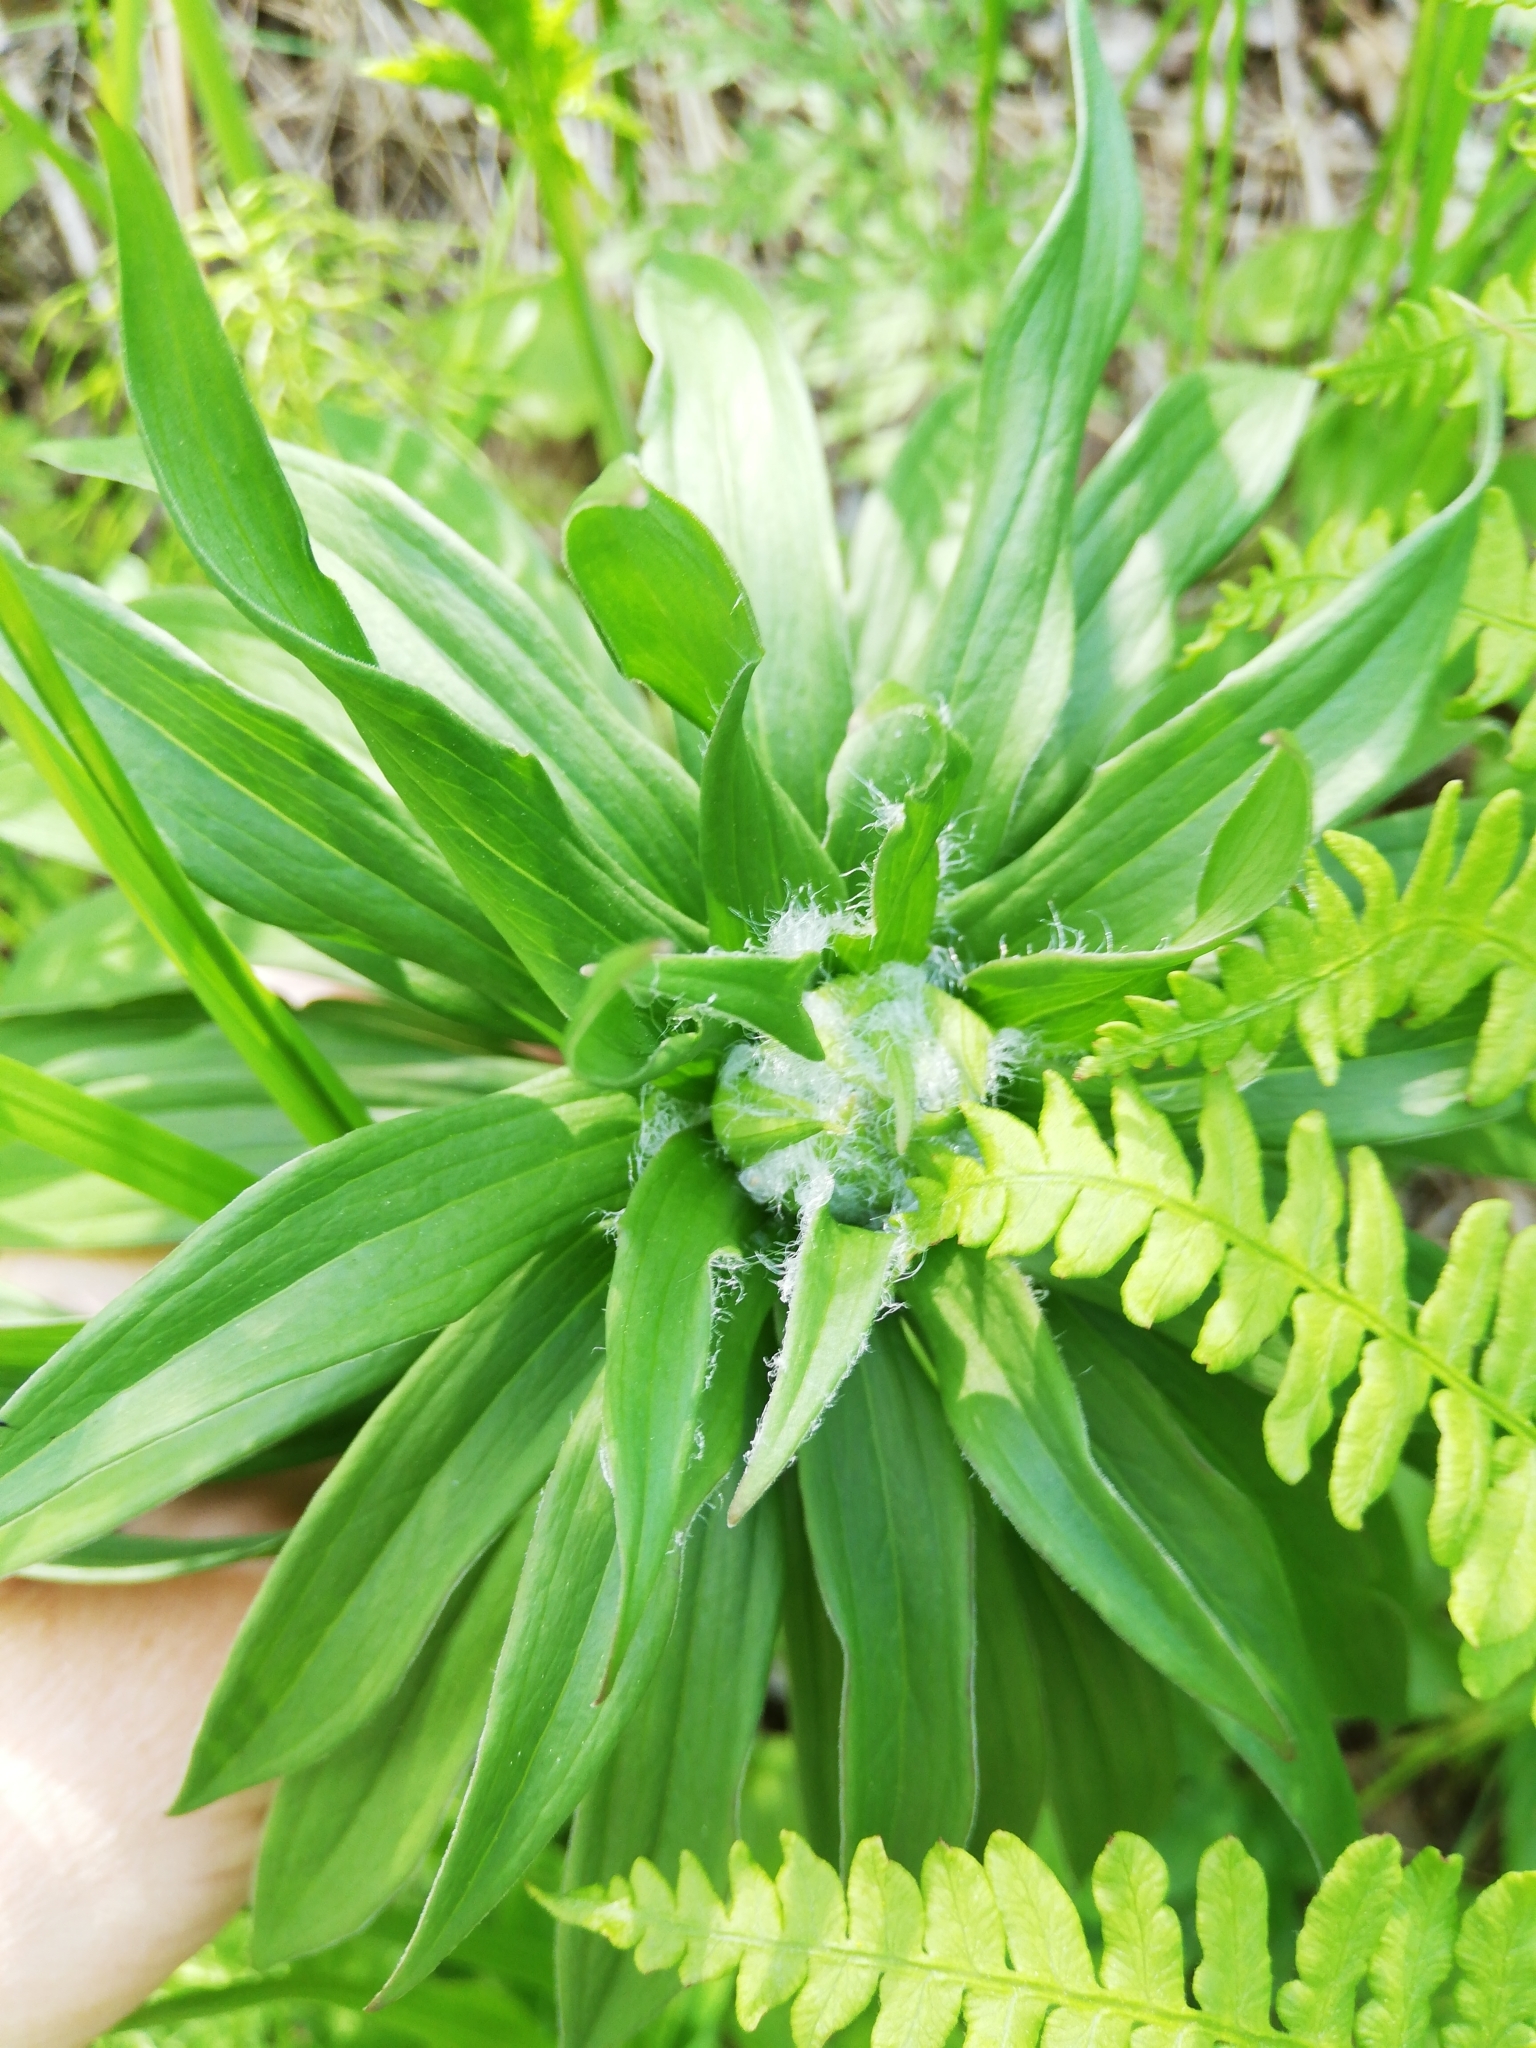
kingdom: Plantae
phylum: Tracheophyta
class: Liliopsida
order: Liliales
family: Liliaceae
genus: Lilium
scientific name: Lilium martagon
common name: Martagon lily
